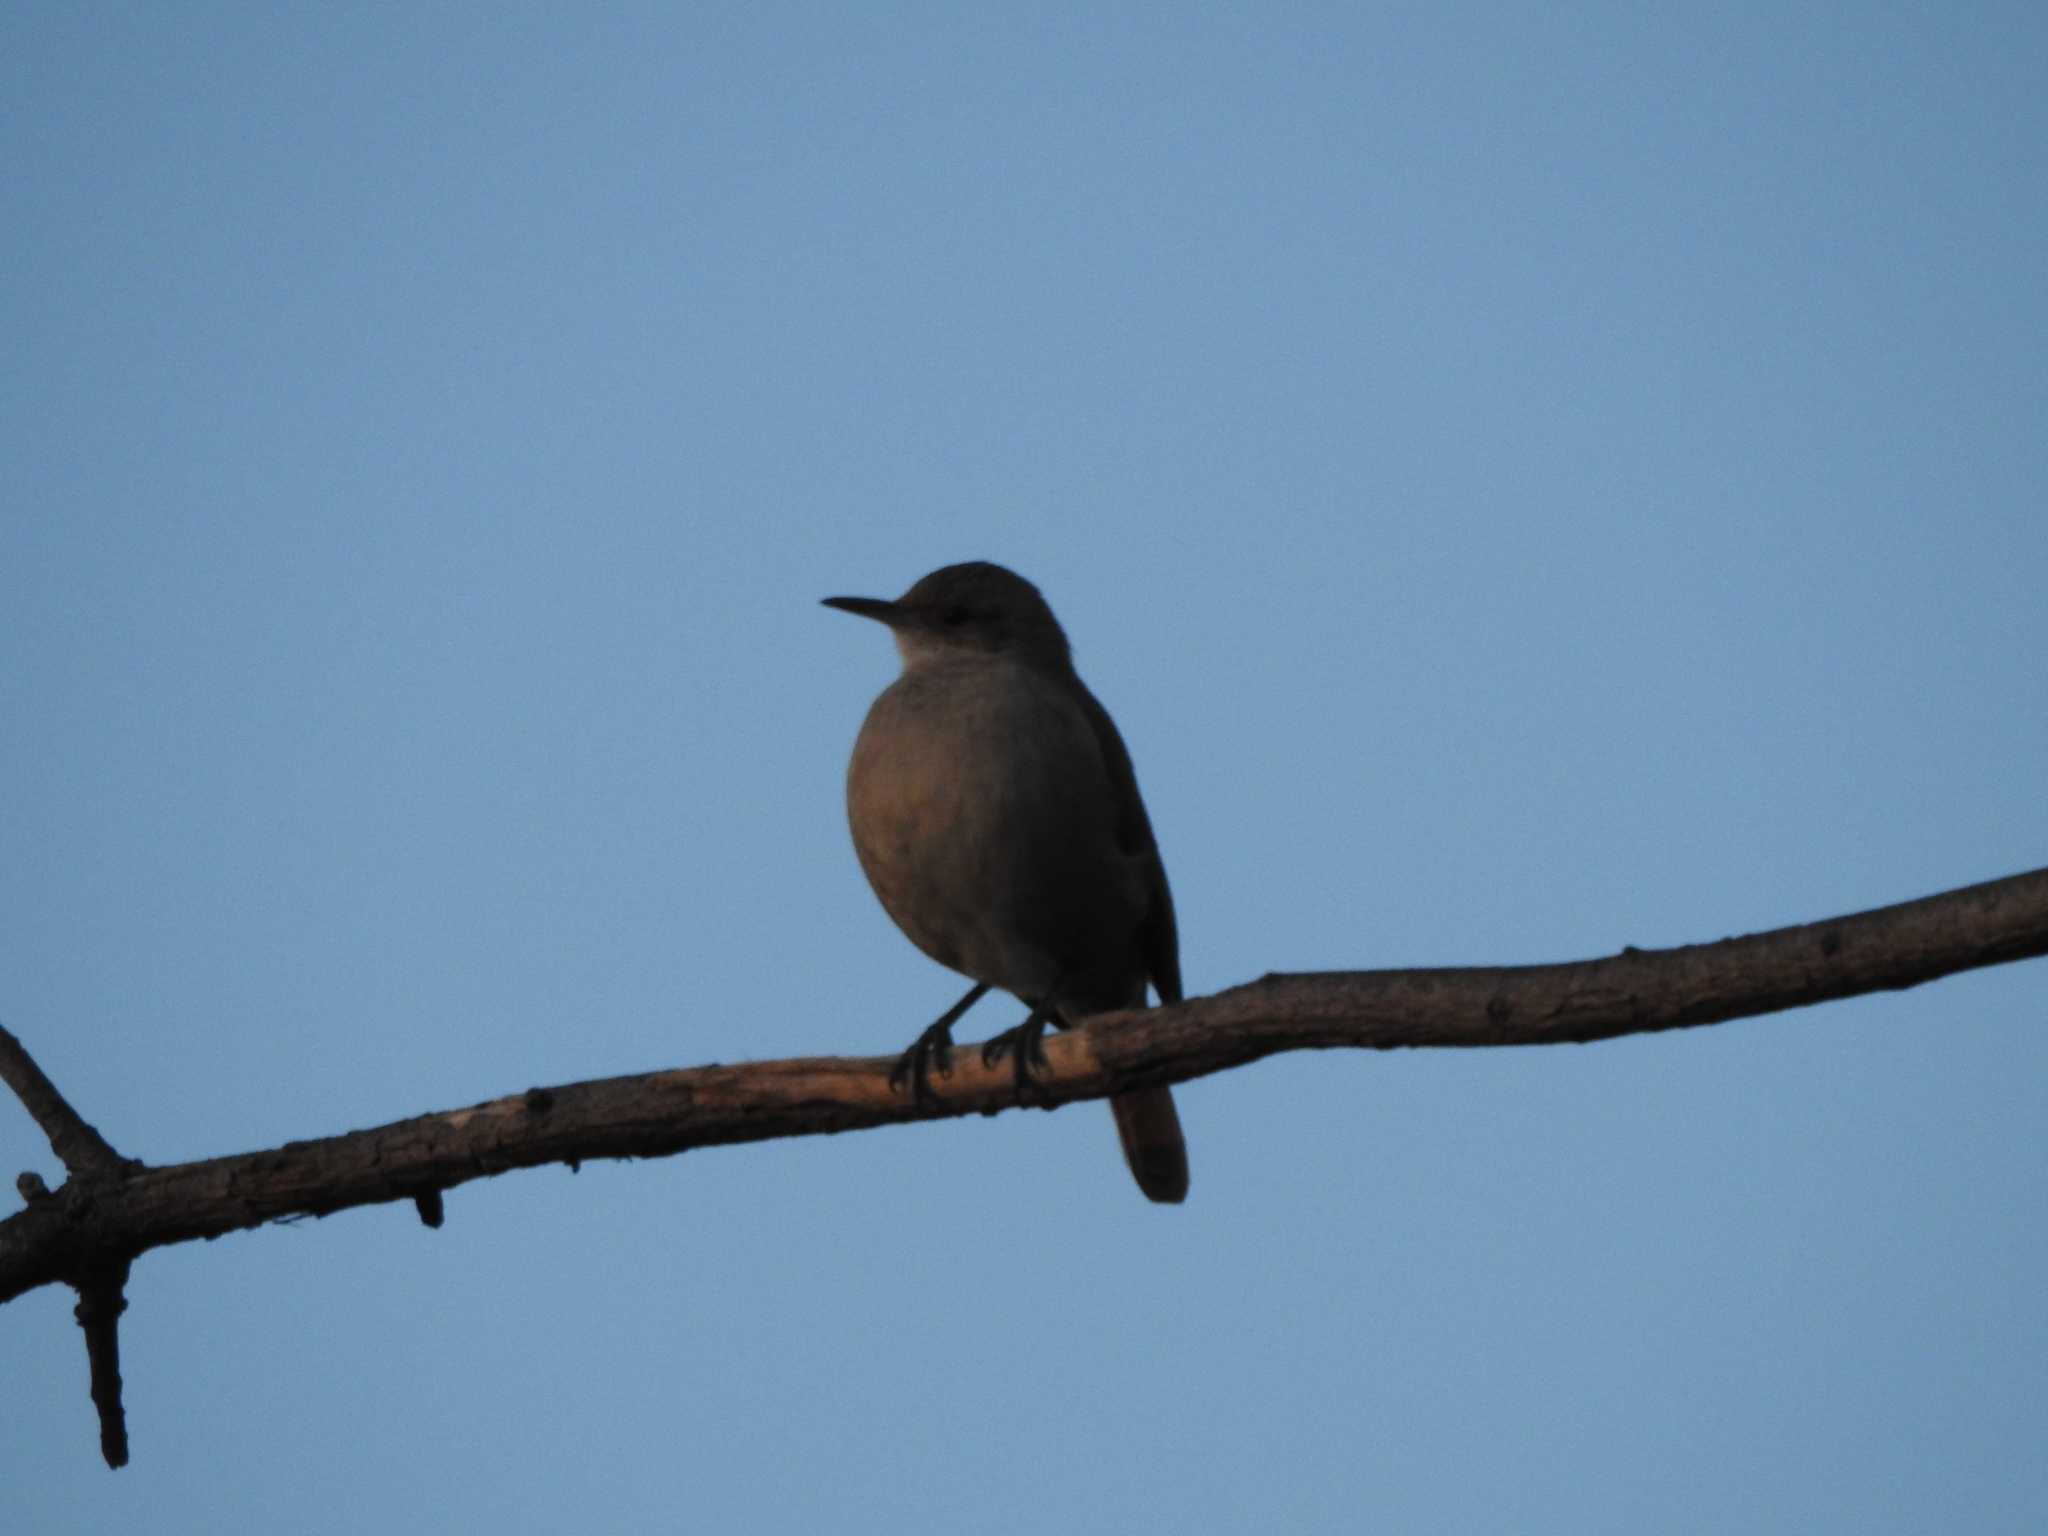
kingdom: Animalia
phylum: Chordata
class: Aves
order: Passeriformes
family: Furnariidae
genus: Furnarius
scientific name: Furnarius rufus
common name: Rufous hornero
